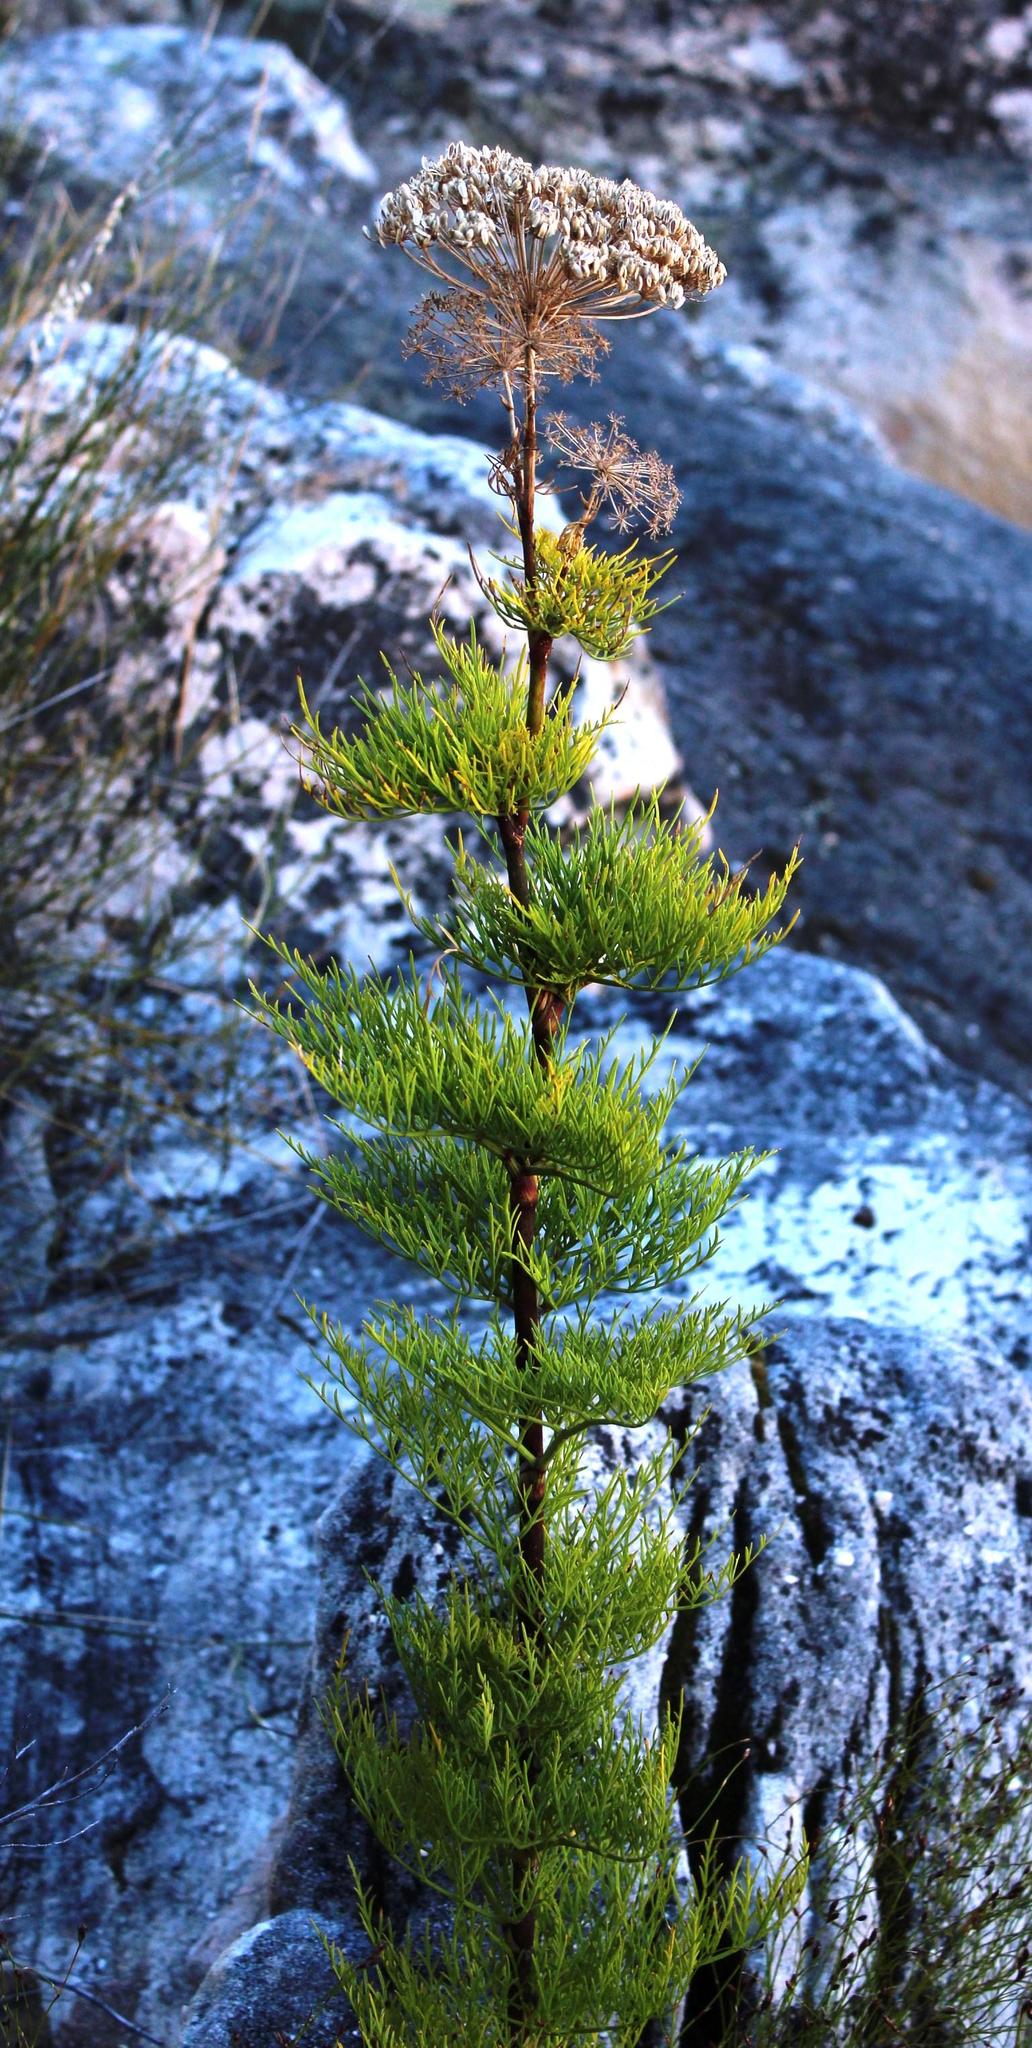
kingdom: Plantae
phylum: Tracheophyta
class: Magnoliopsida
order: Apiales
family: Apiaceae
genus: Notobubon
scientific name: Notobubon tenuifolium
